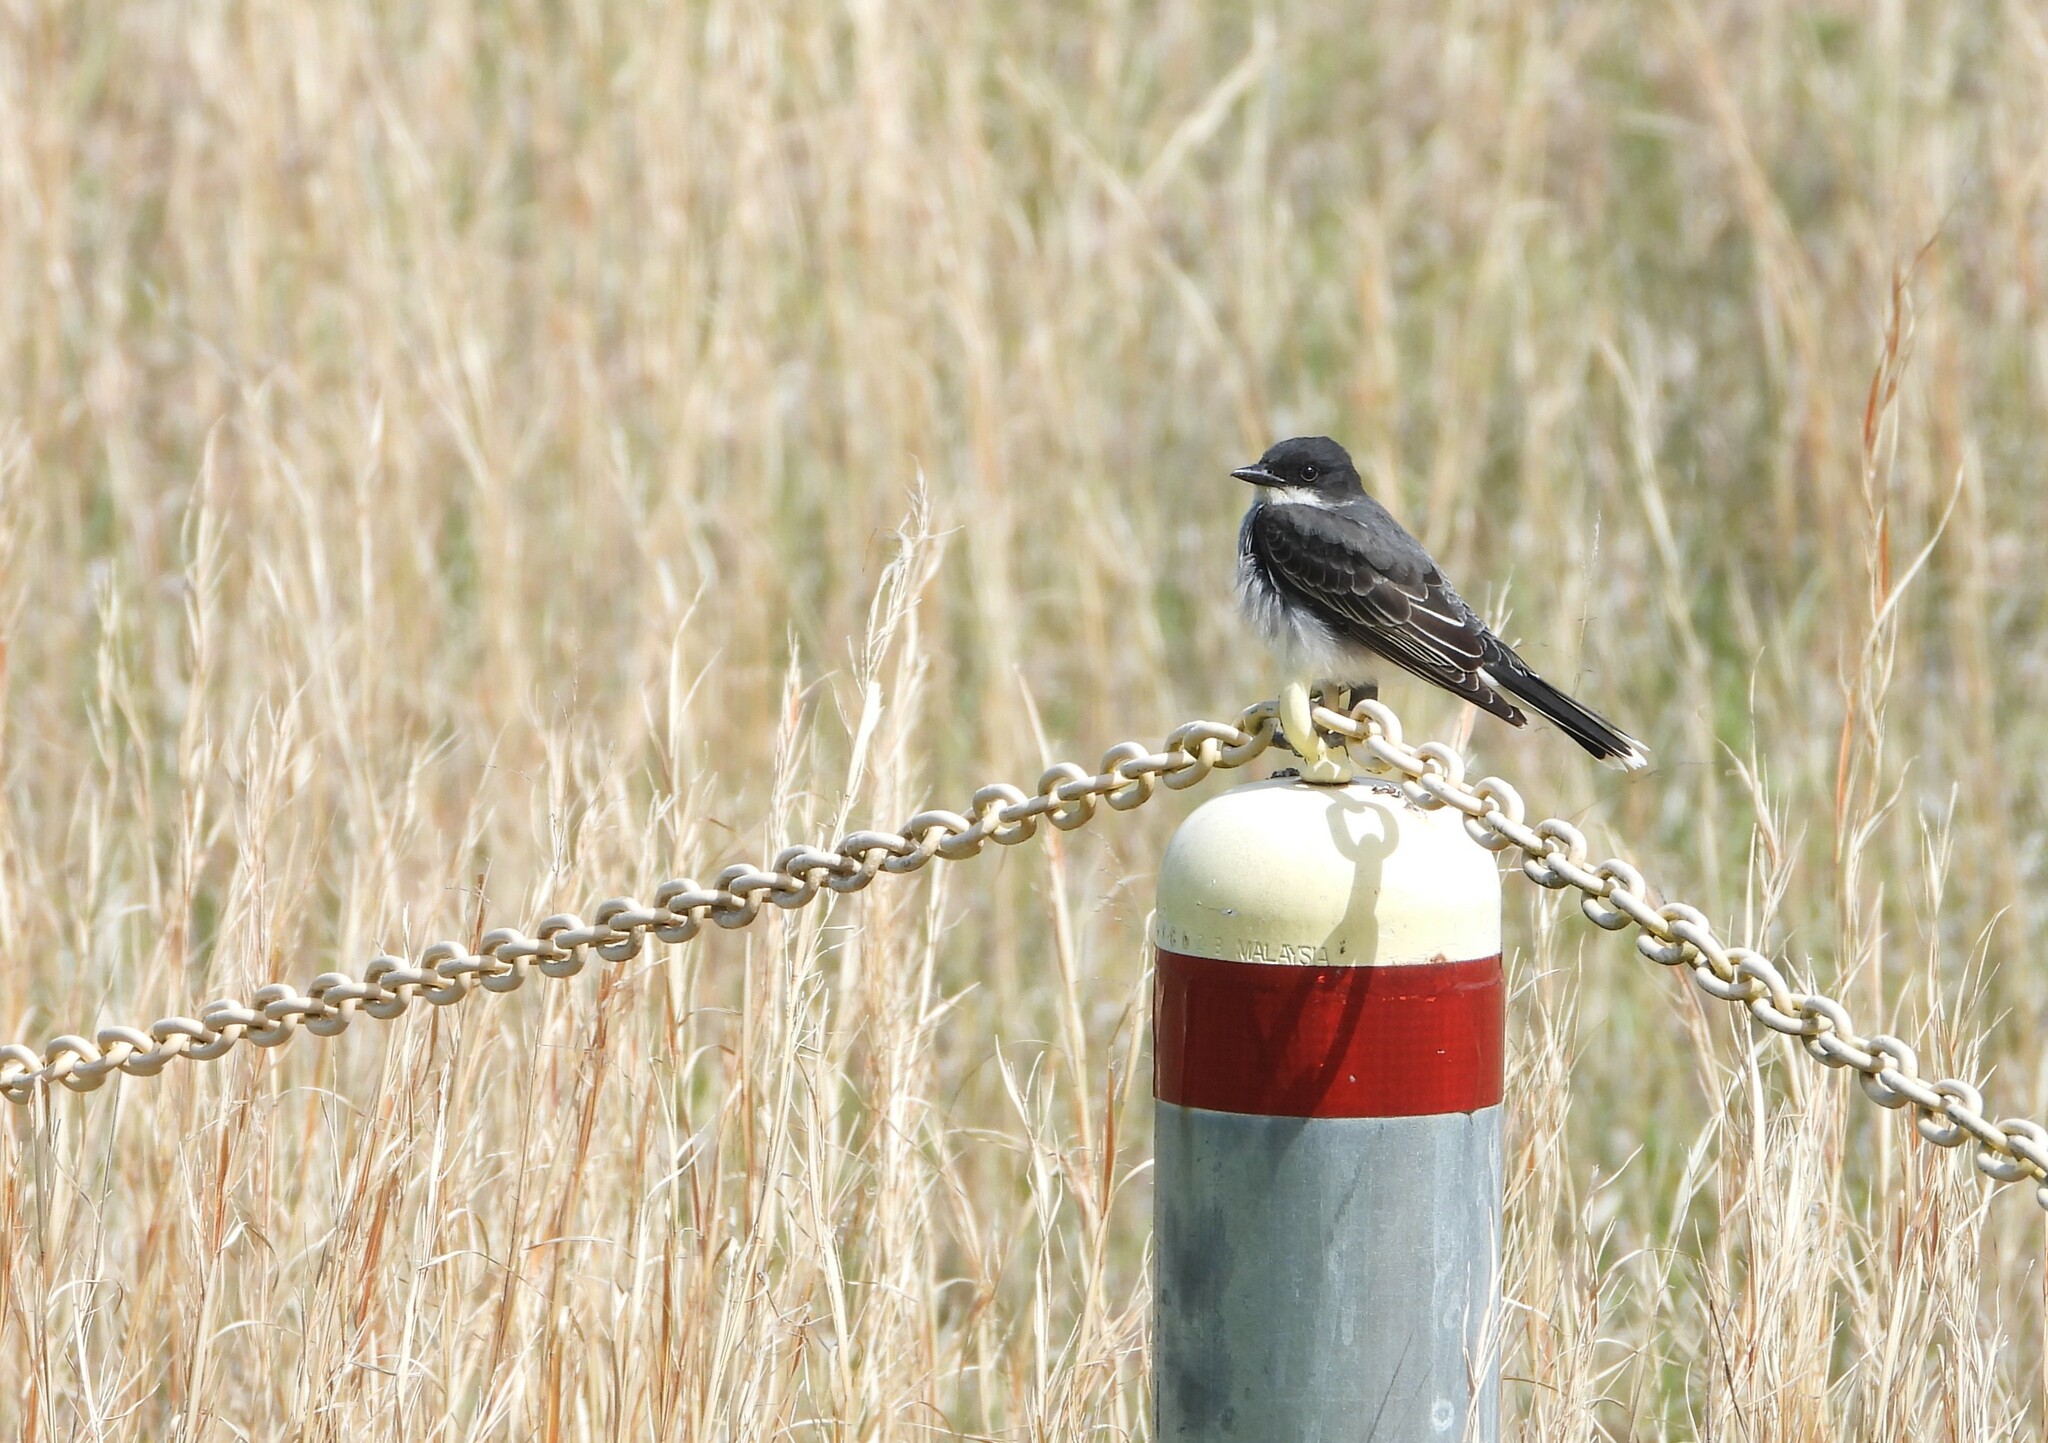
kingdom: Animalia
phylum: Chordata
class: Aves
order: Passeriformes
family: Tyrannidae
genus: Tyrannus
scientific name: Tyrannus tyrannus
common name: Eastern kingbird
